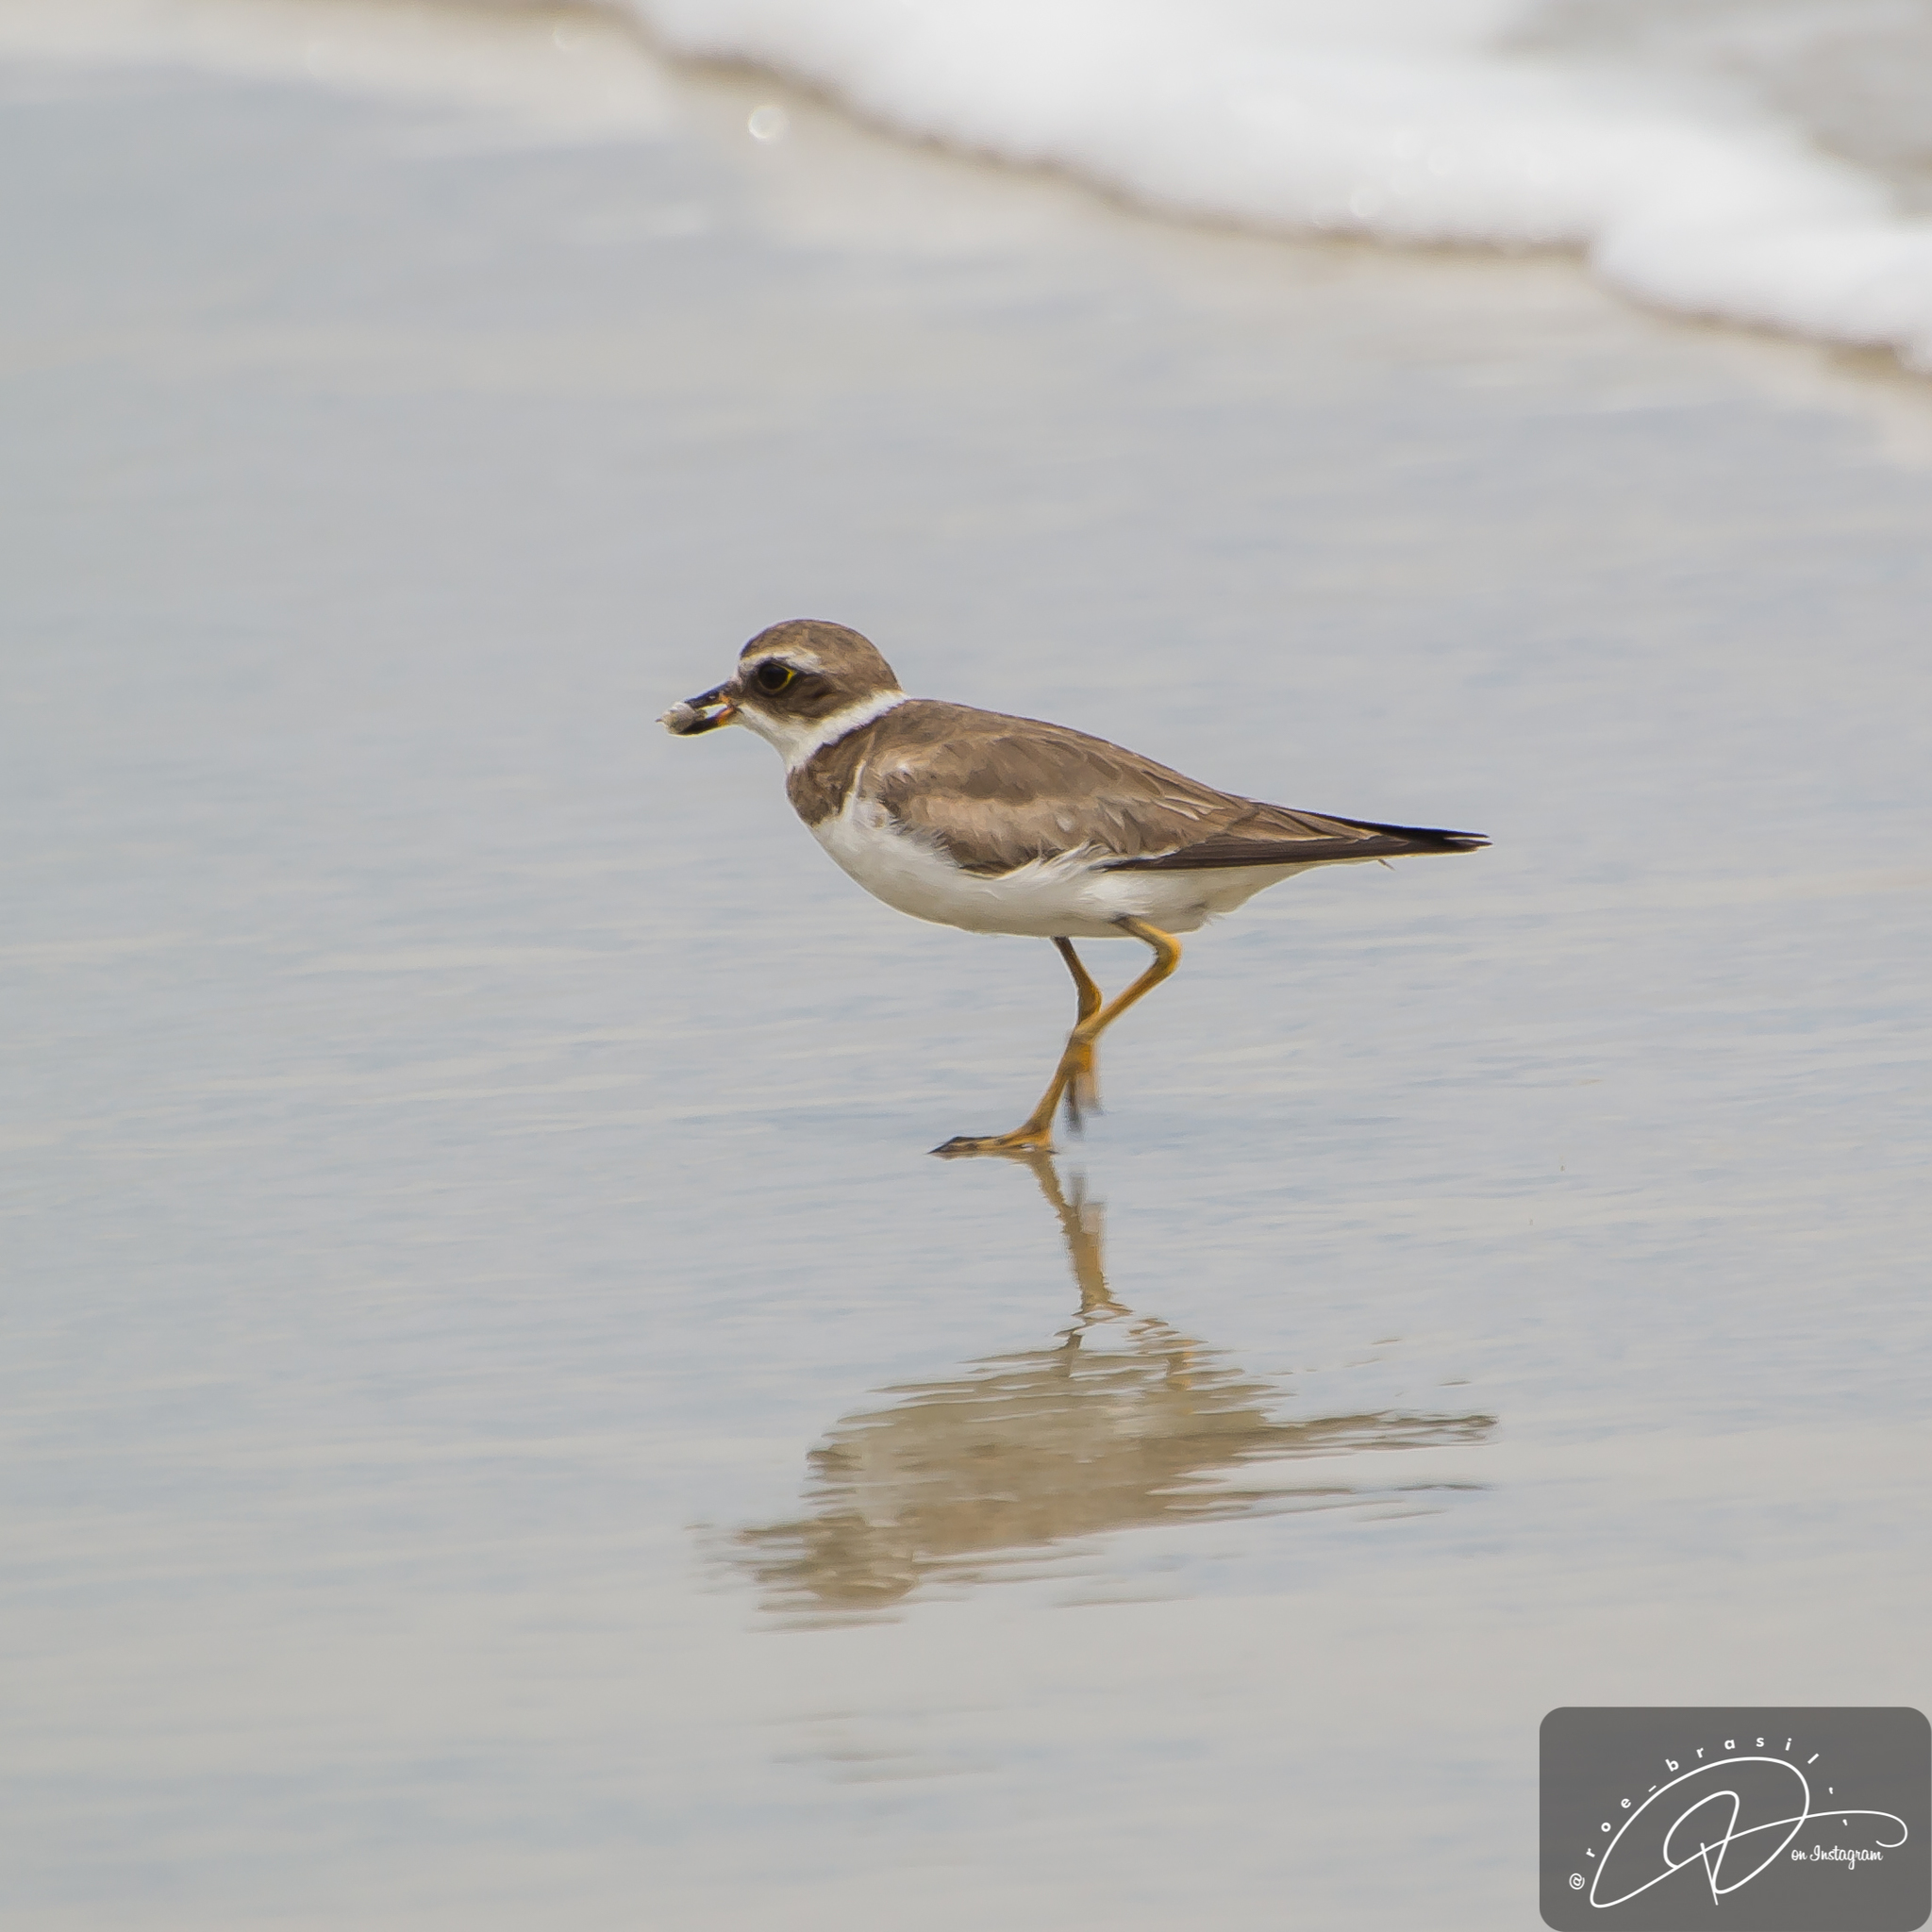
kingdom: Animalia
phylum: Chordata
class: Aves
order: Charadriiformes
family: Charadriidae
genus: Charadrius
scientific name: Charadrius semipalmatus
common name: Semipalmated plover
